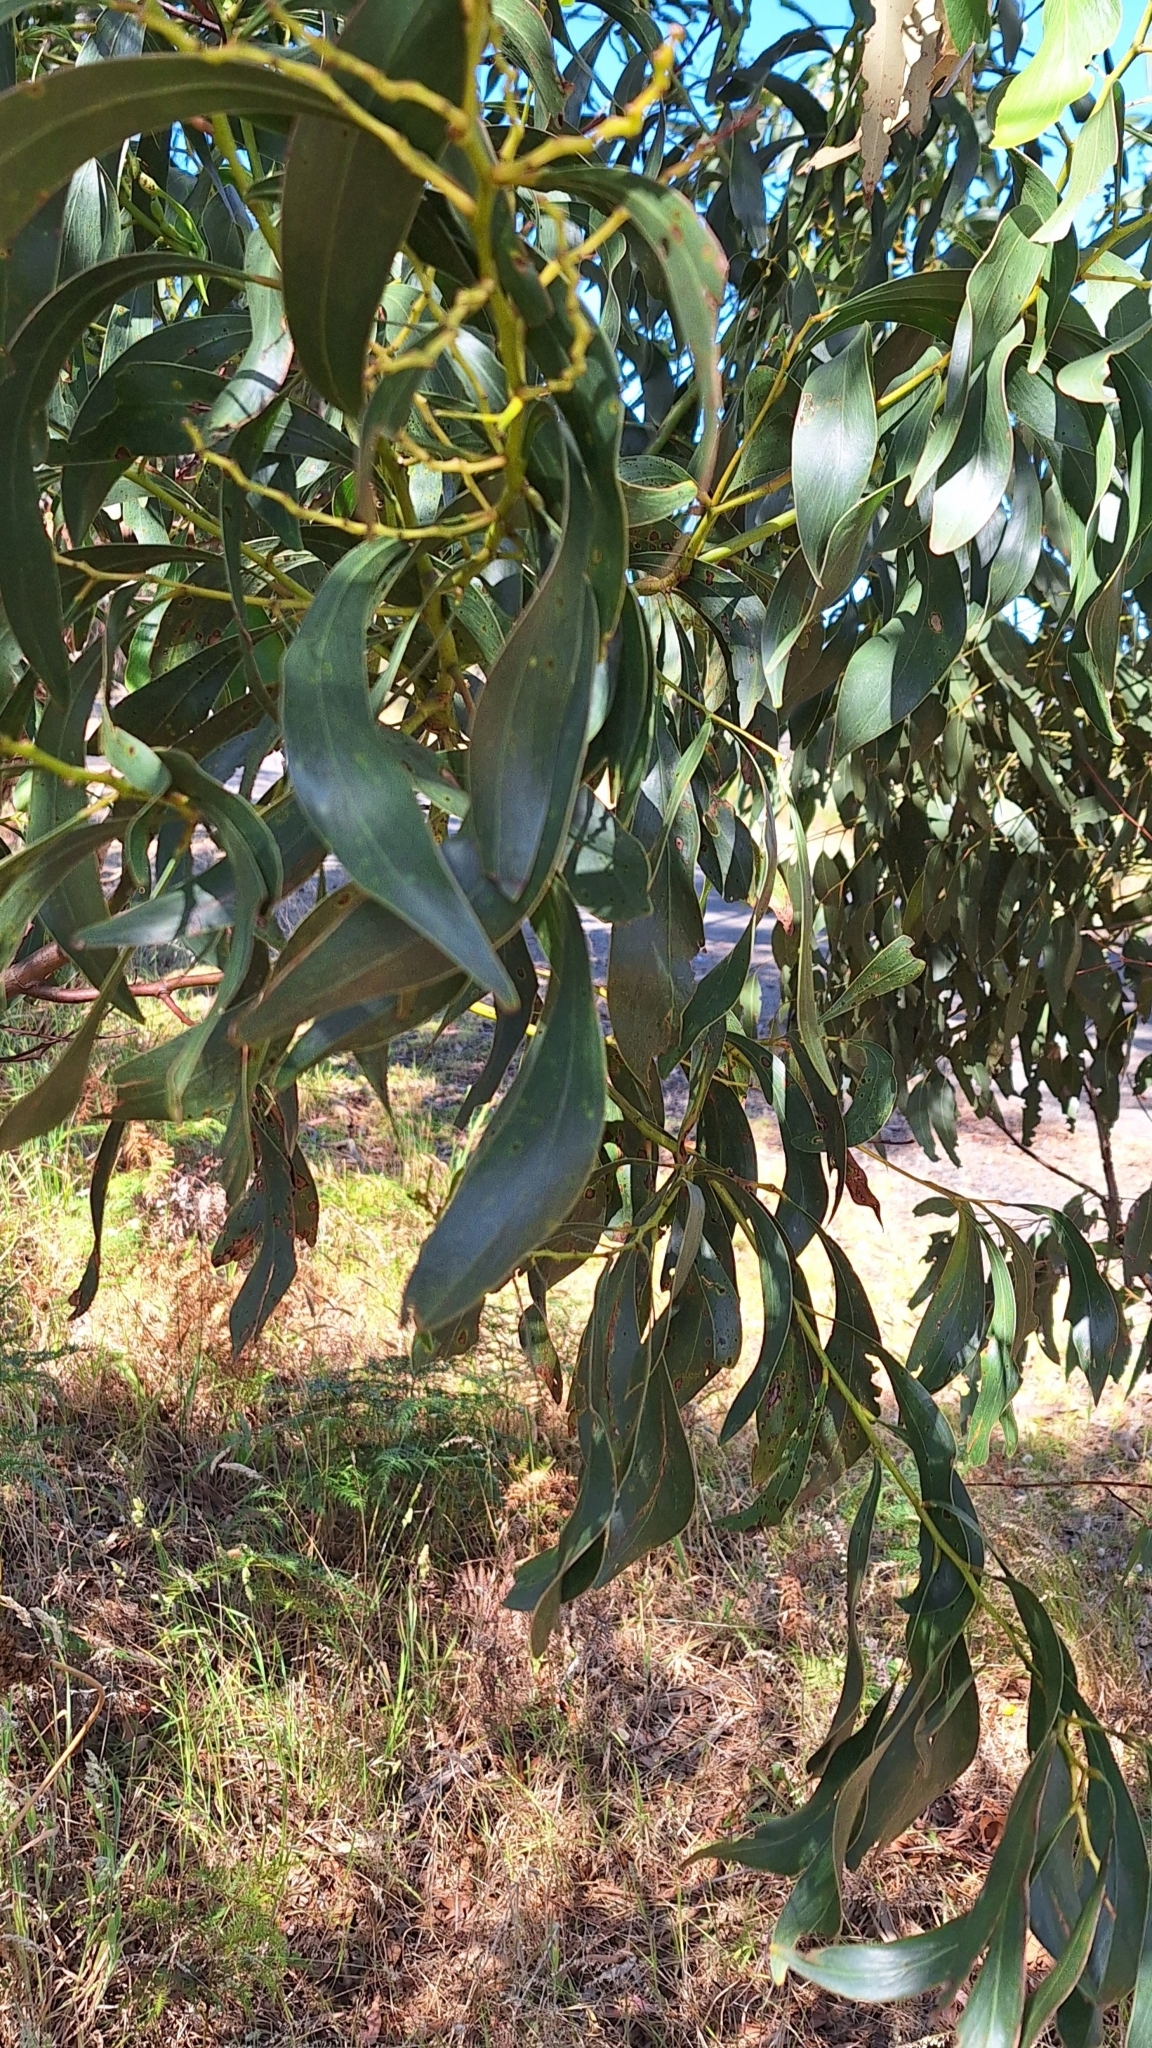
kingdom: Plantae
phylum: Tracheophyta
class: Magnoliopsida
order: Fabales
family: Fabaceae
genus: Acacia
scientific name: Acacia pycnantha
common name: Golden wattle
